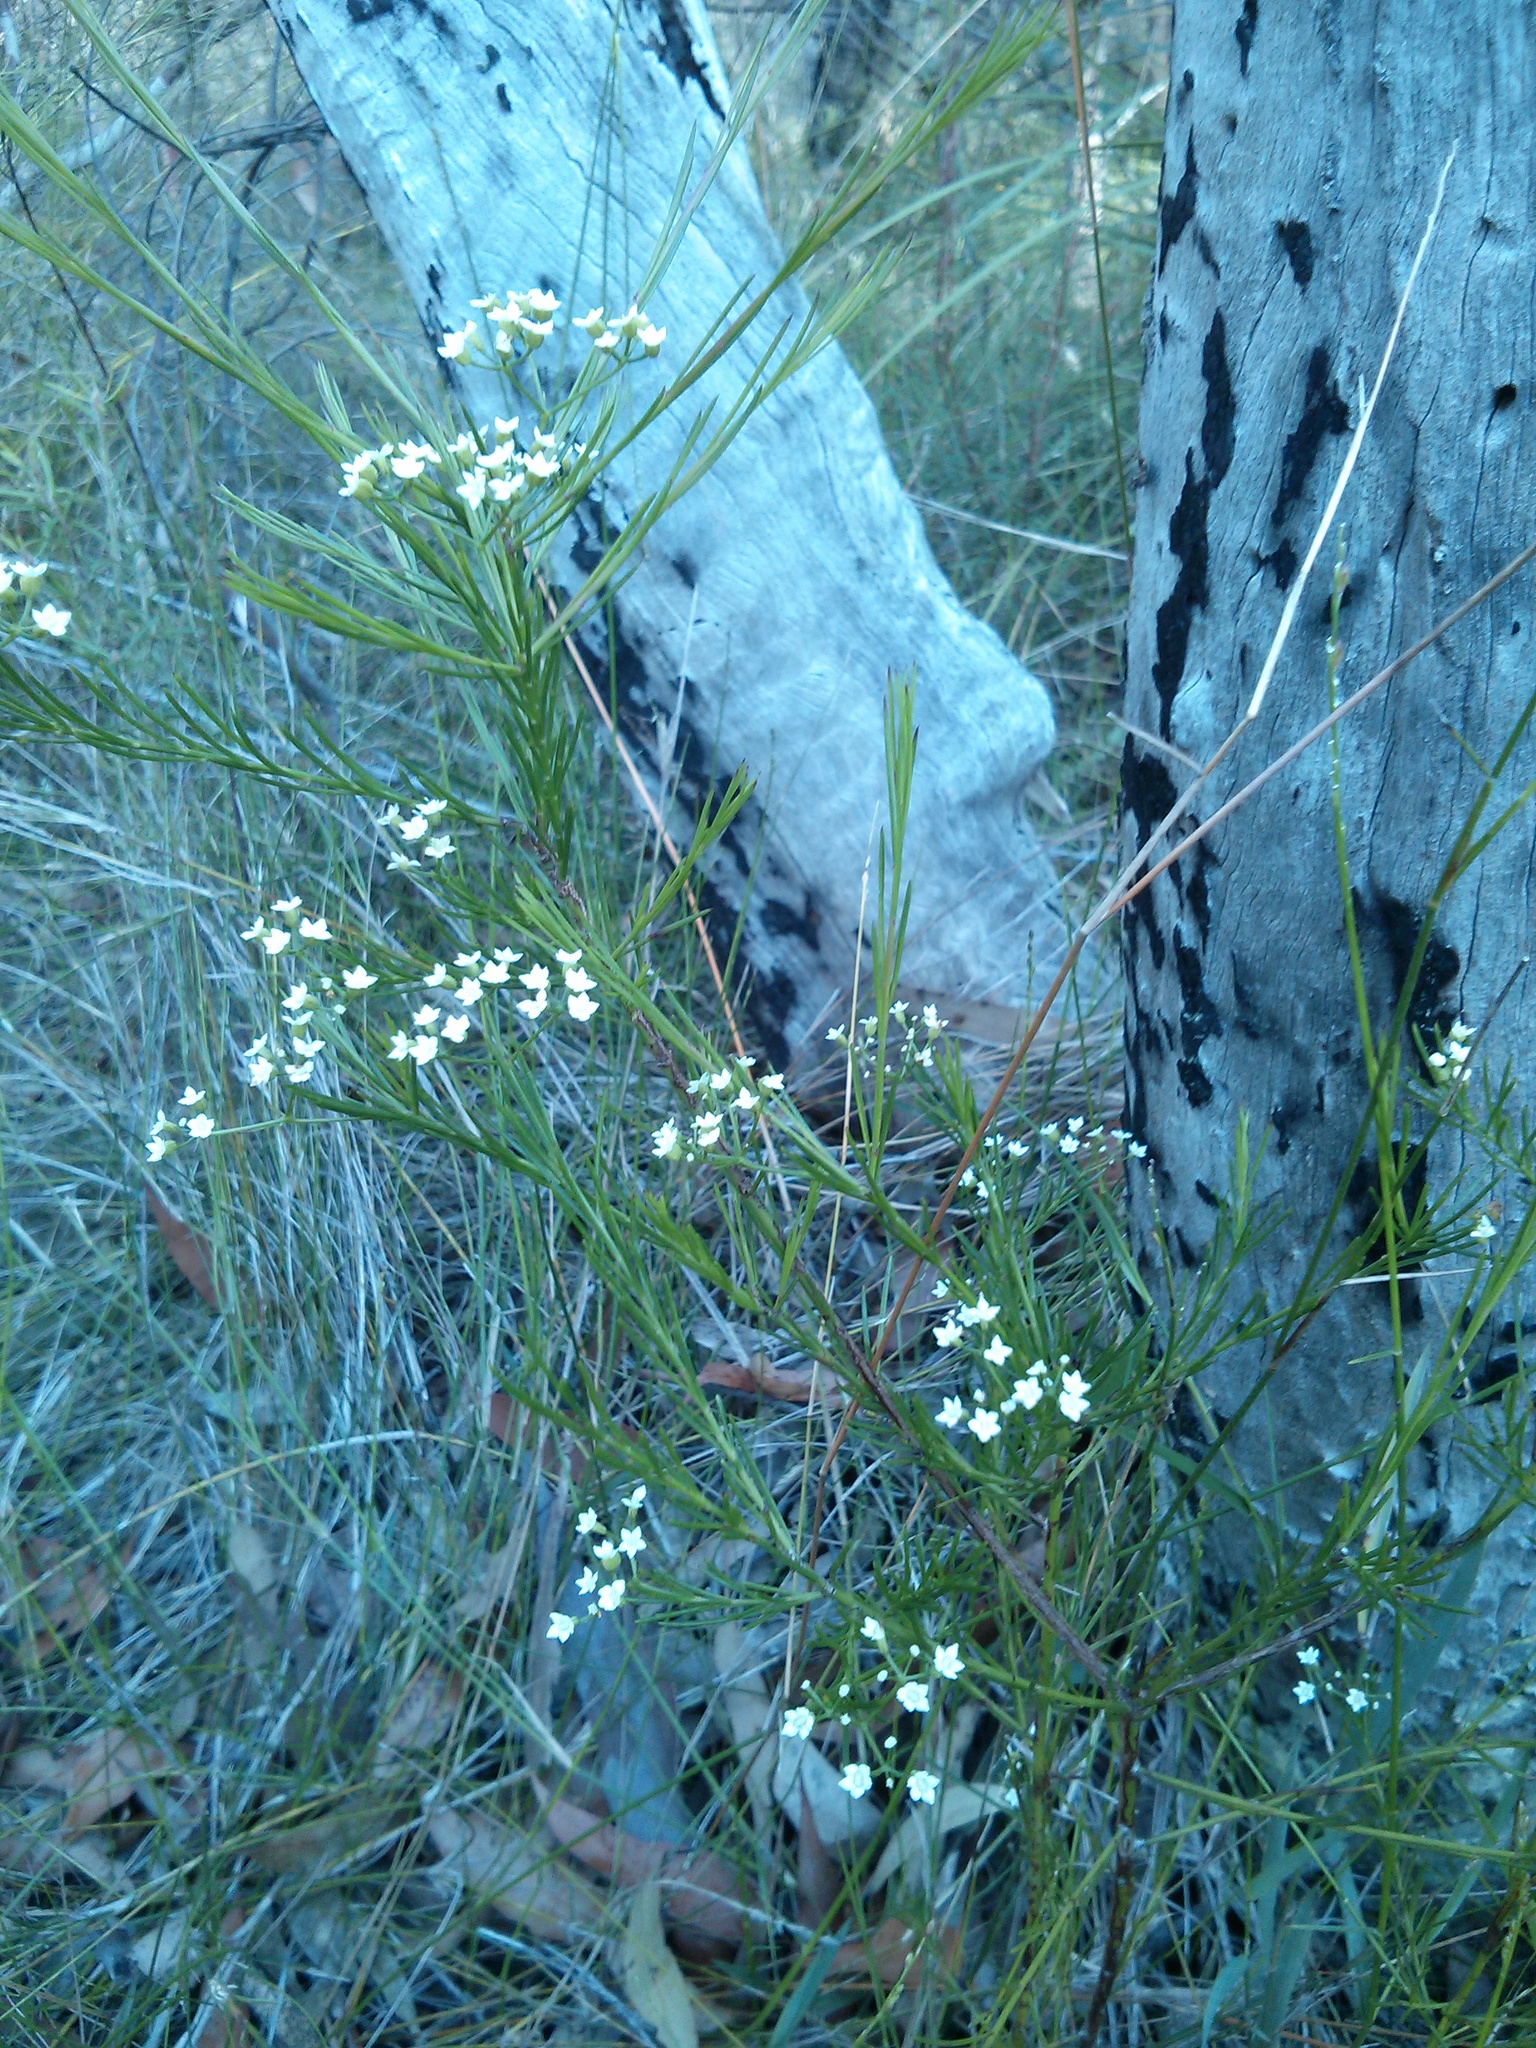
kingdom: Plantae
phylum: Tracheophyta
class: Magnoliopsida
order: Apiales
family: Apiaceae
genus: Platysace
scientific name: Platysace linearifolia
